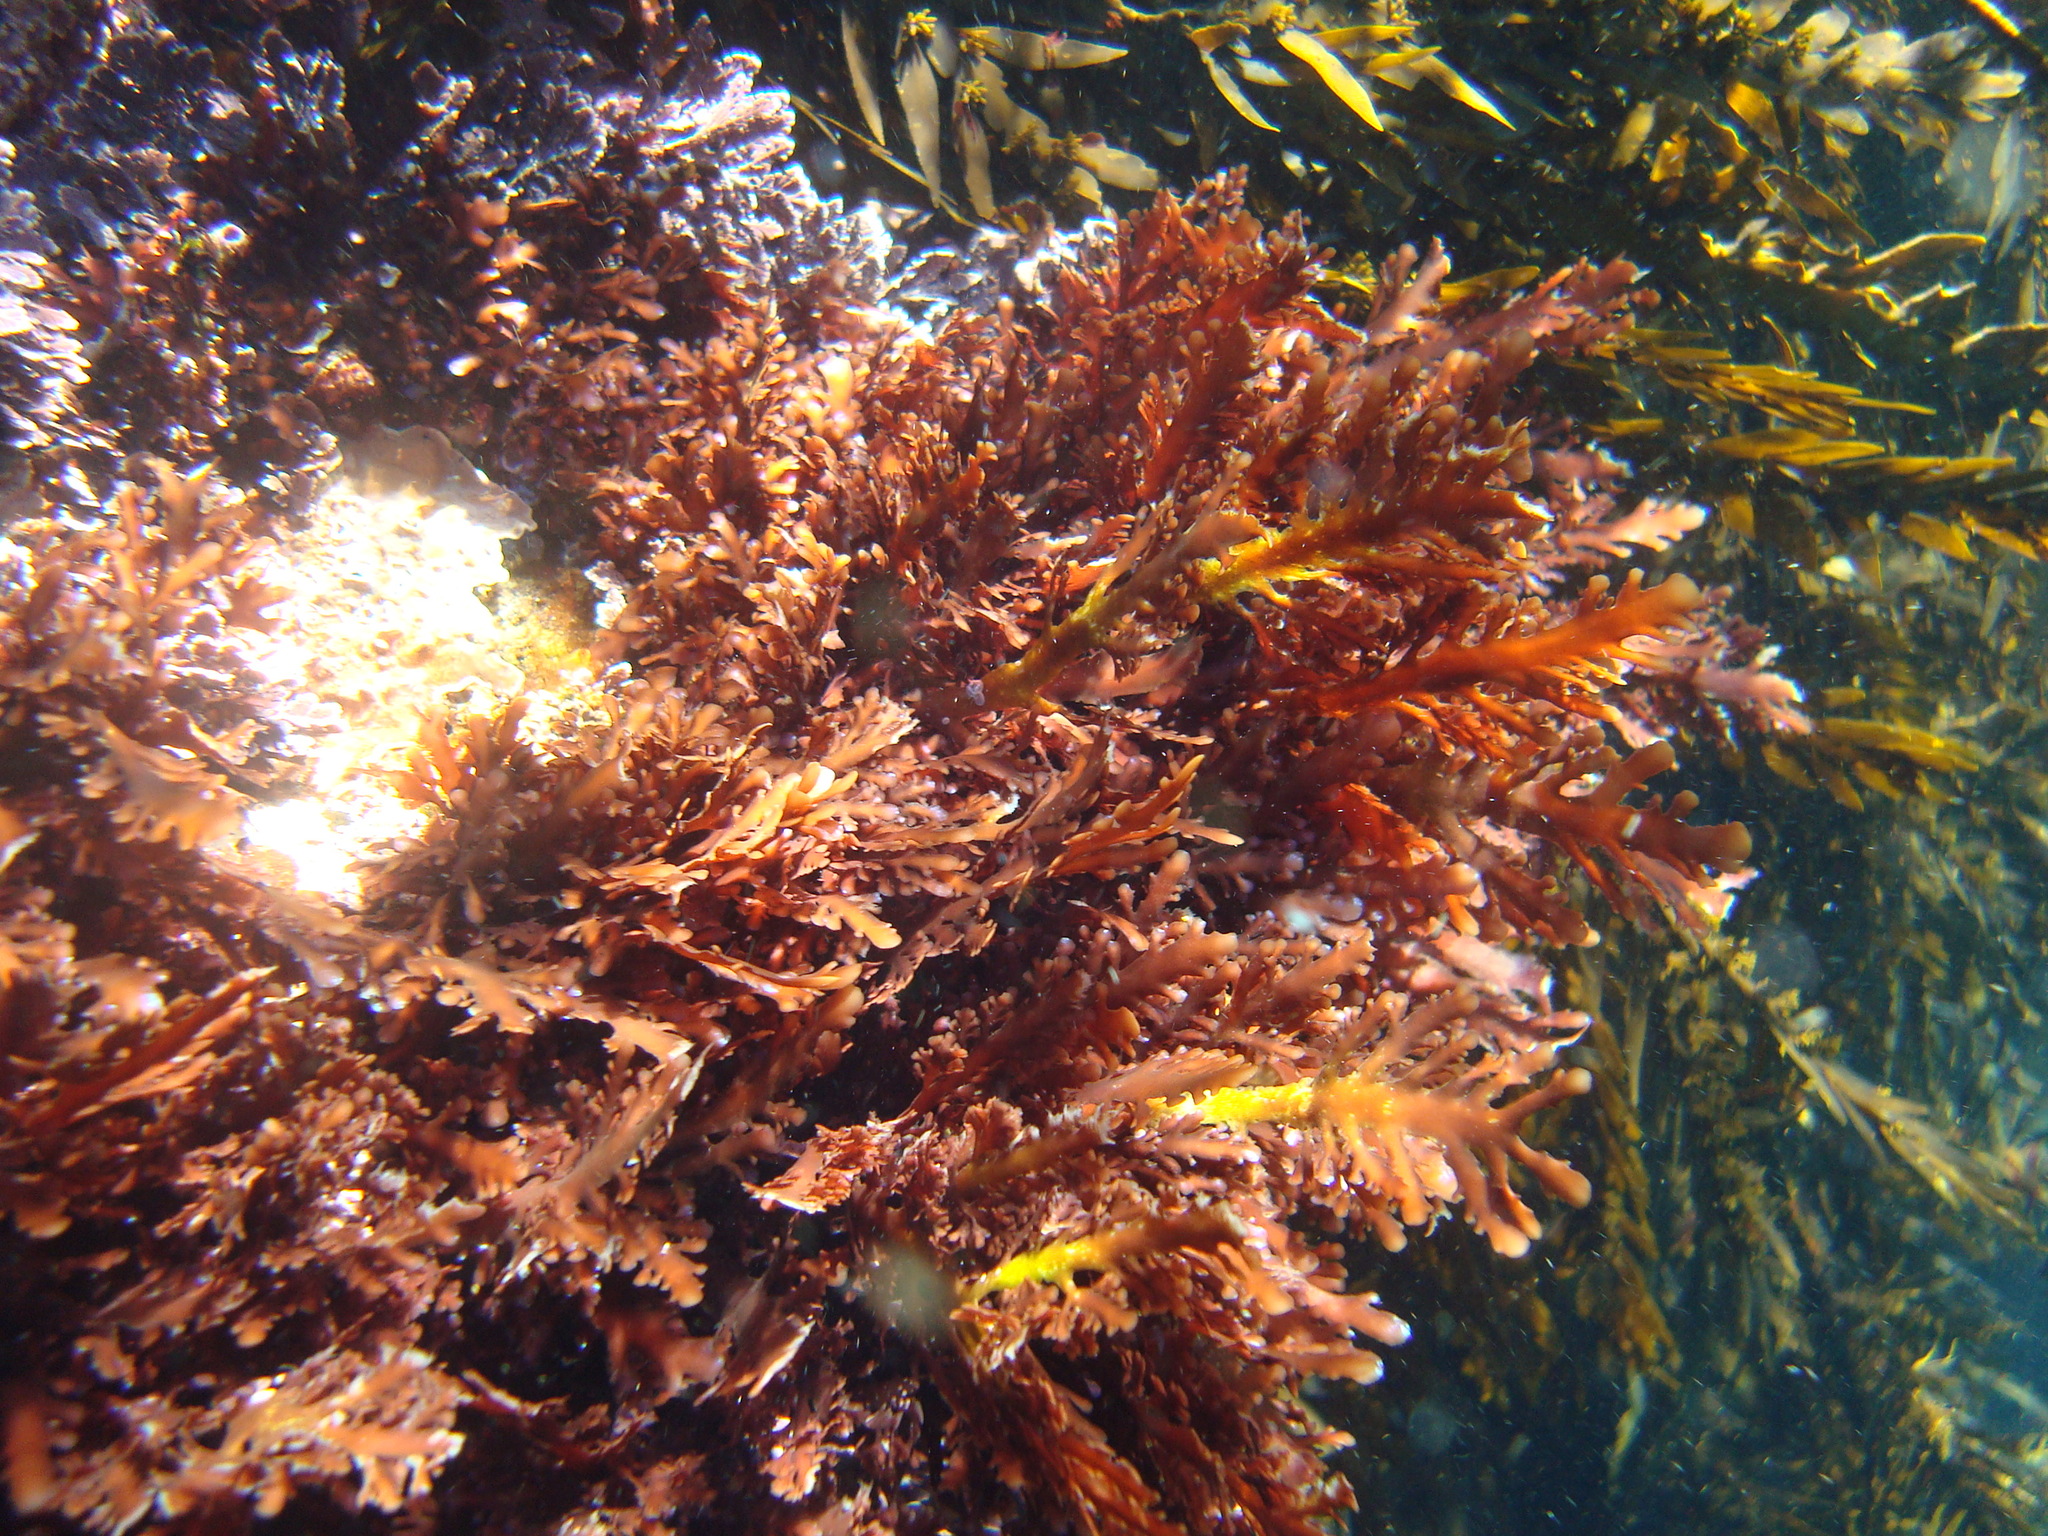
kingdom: Plantae
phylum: Rhodophyta
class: Florideophyceae
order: Gelidiales
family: Pterocladiaceae
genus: Pterocladia
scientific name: Pterocladia lucida
